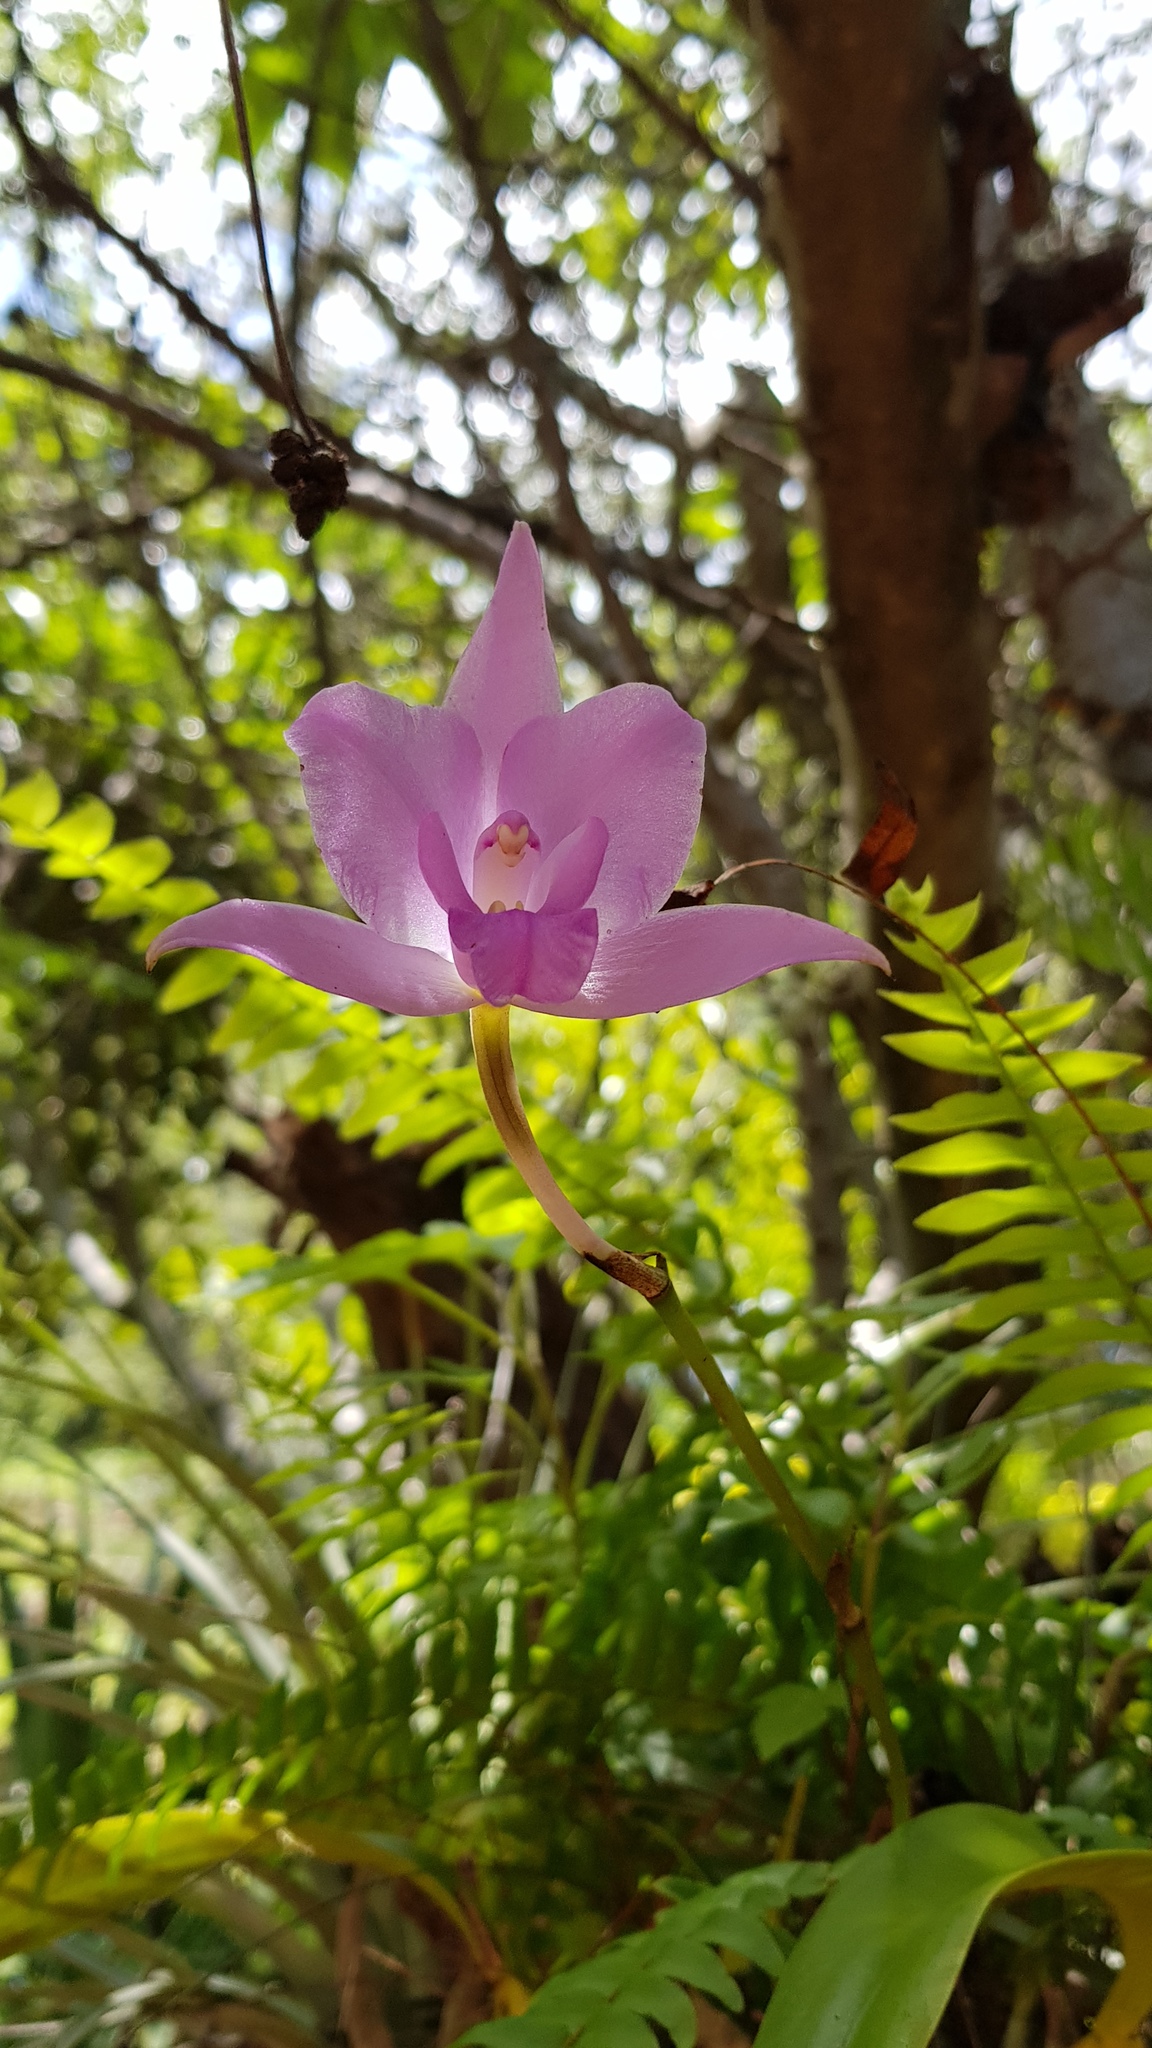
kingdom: Plantae
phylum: Tracheophyta
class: Liliopsida
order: Asparagales
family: Orchidaceae
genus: Laelia
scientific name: Laelia furfuracea
